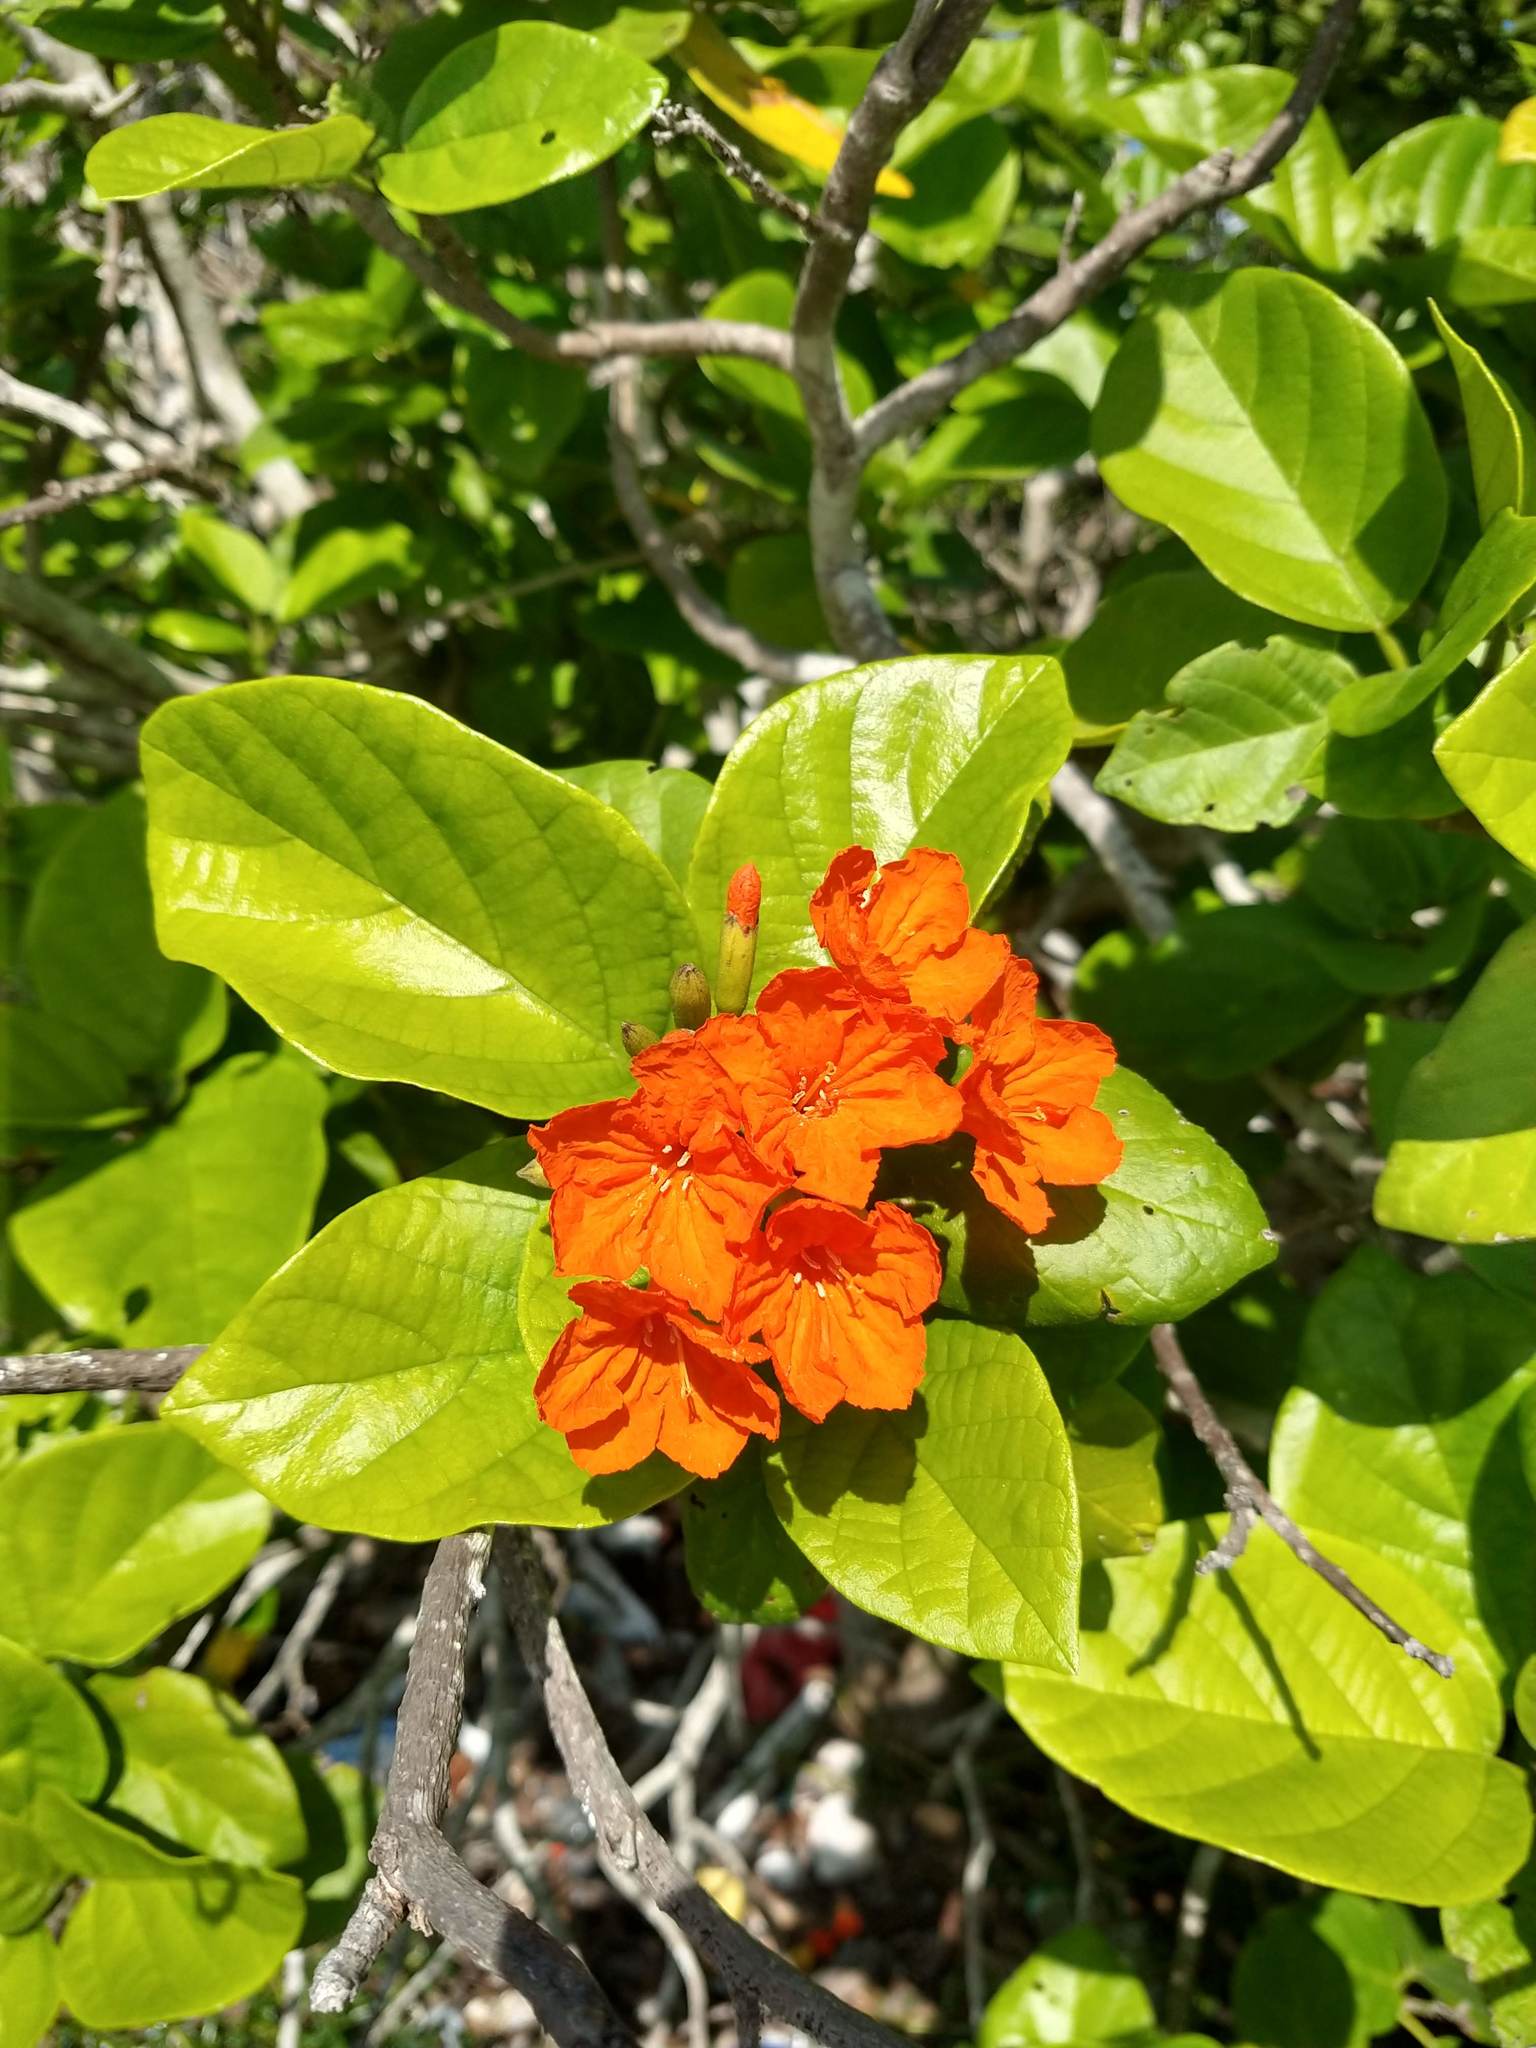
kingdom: Plantae
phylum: Tracheophyta
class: Magnoliopsida
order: Boraginales
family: Cordiaceae
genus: Cordia
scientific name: Cordia sebestena
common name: Largeleaf geigertree
